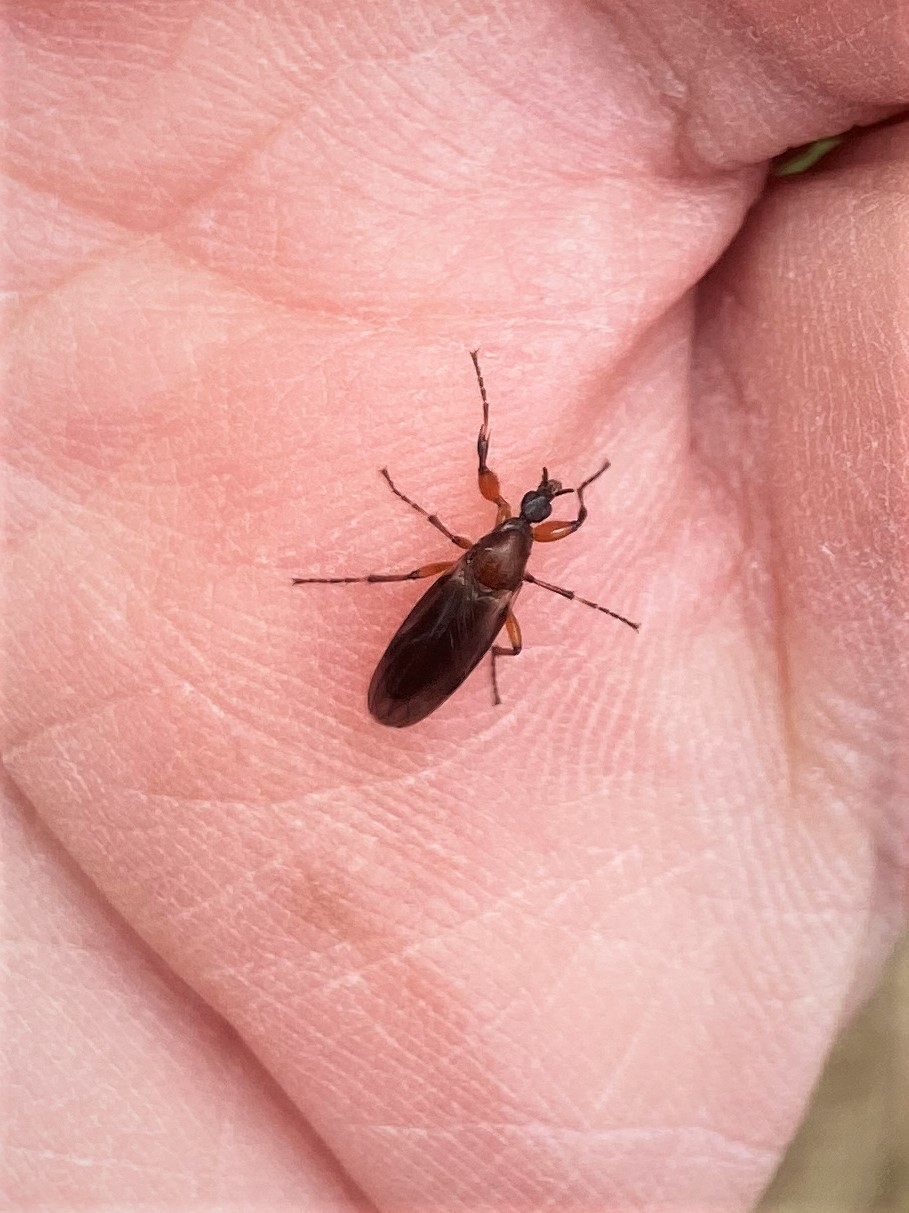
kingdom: Animalia
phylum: Arthropoda
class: Insecta
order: Diptera
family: Bibionidae
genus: Bibio
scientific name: Bibio articulatus
